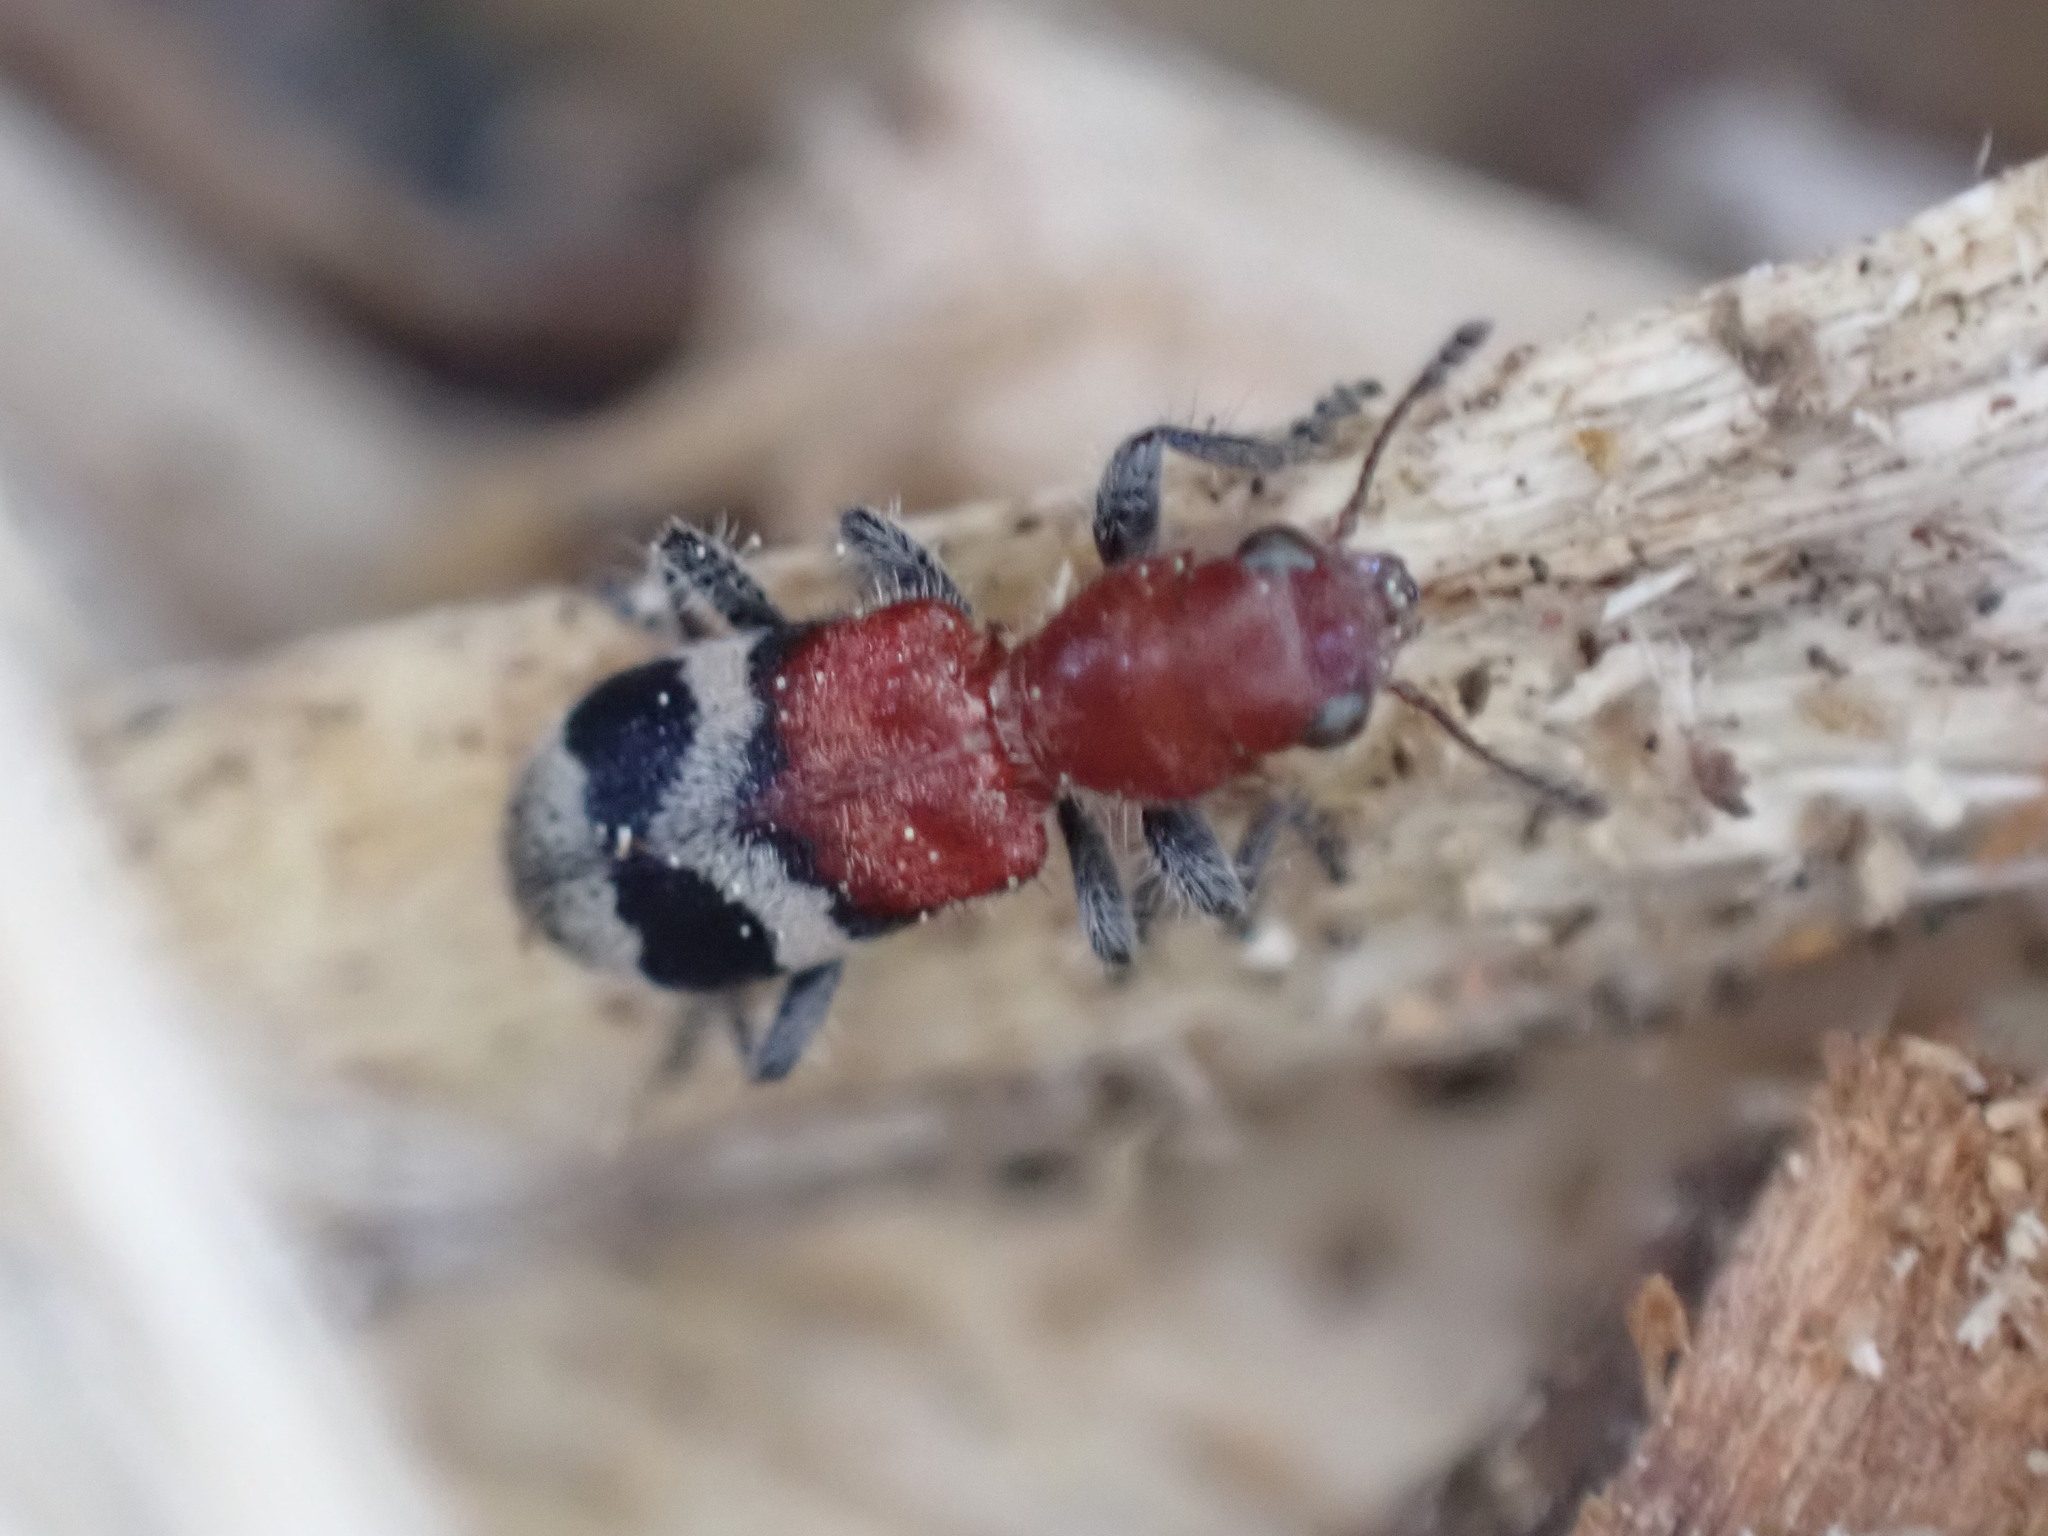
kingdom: Animalia
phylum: Arthropoda
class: Insecta
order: Coleoptera
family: Cleridae
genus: Enoclerus
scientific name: Enoclerus nigripes
